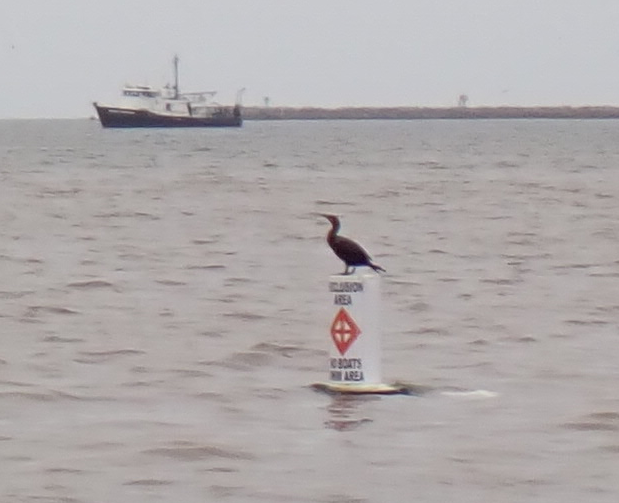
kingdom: Animalia
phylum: Chordata
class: Aves
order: Suliformes
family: Phalacrocoracidae
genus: Phalacrocorax
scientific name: Phalacrocorax auritus
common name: Double-crested cormorant
